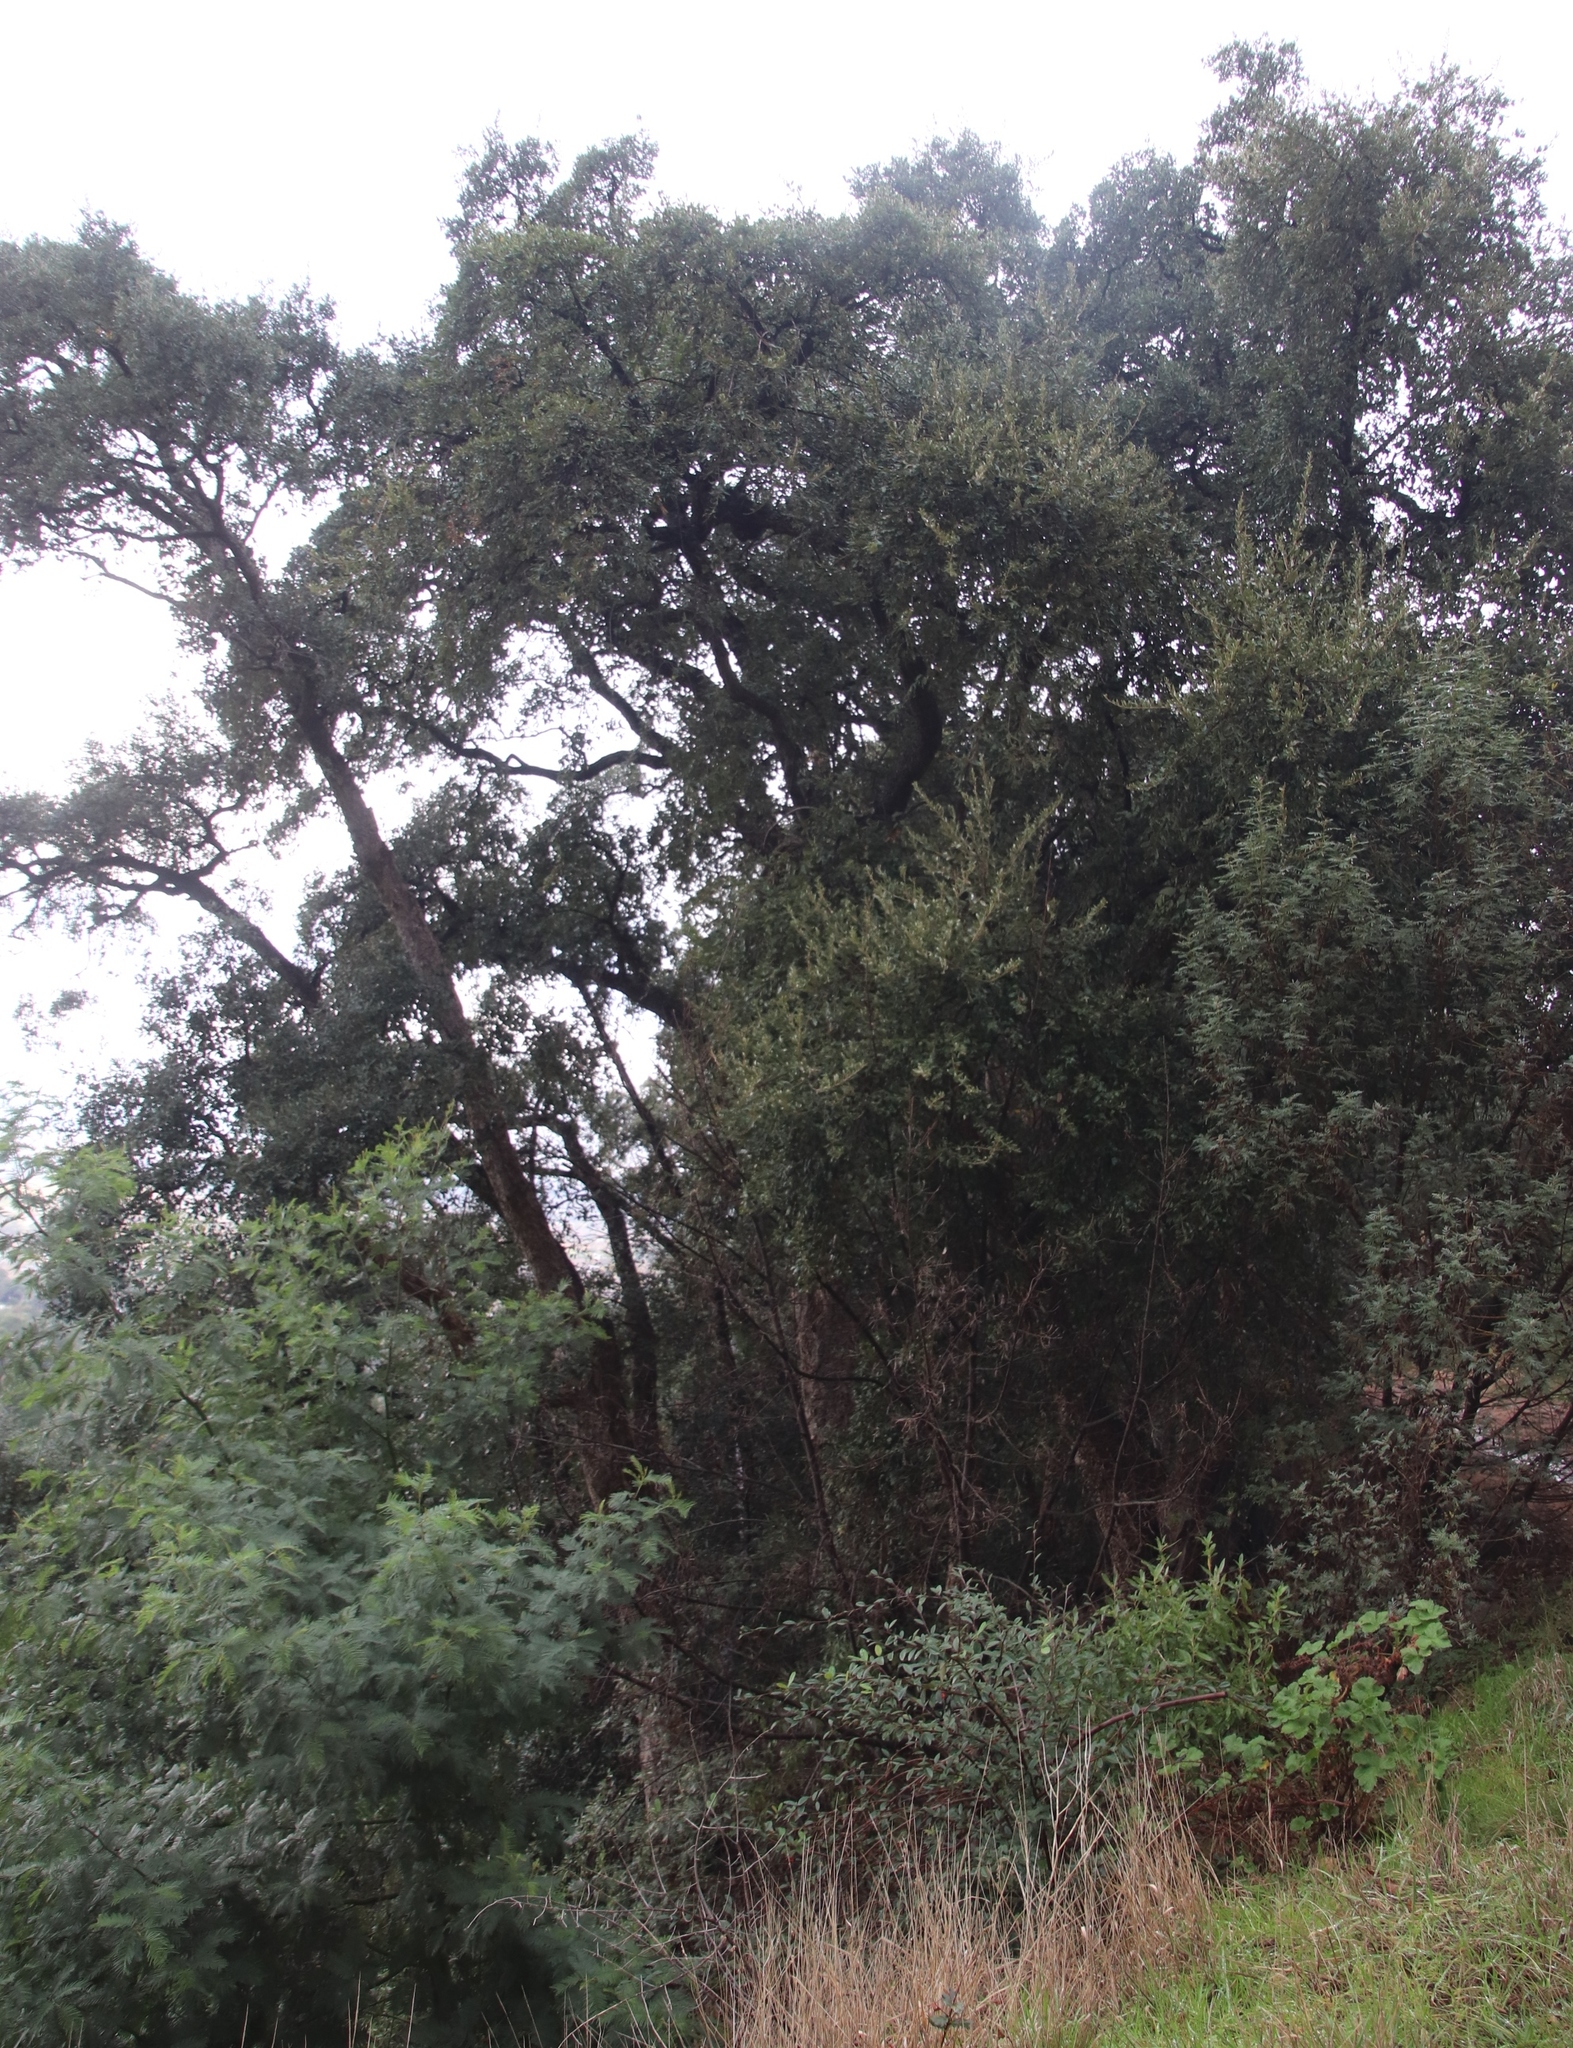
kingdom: Plantae
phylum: Tracheophyta
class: Magnoliopsida
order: Fagales
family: Fagaceae
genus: Quercus
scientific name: Quercus suber
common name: Cork oak
